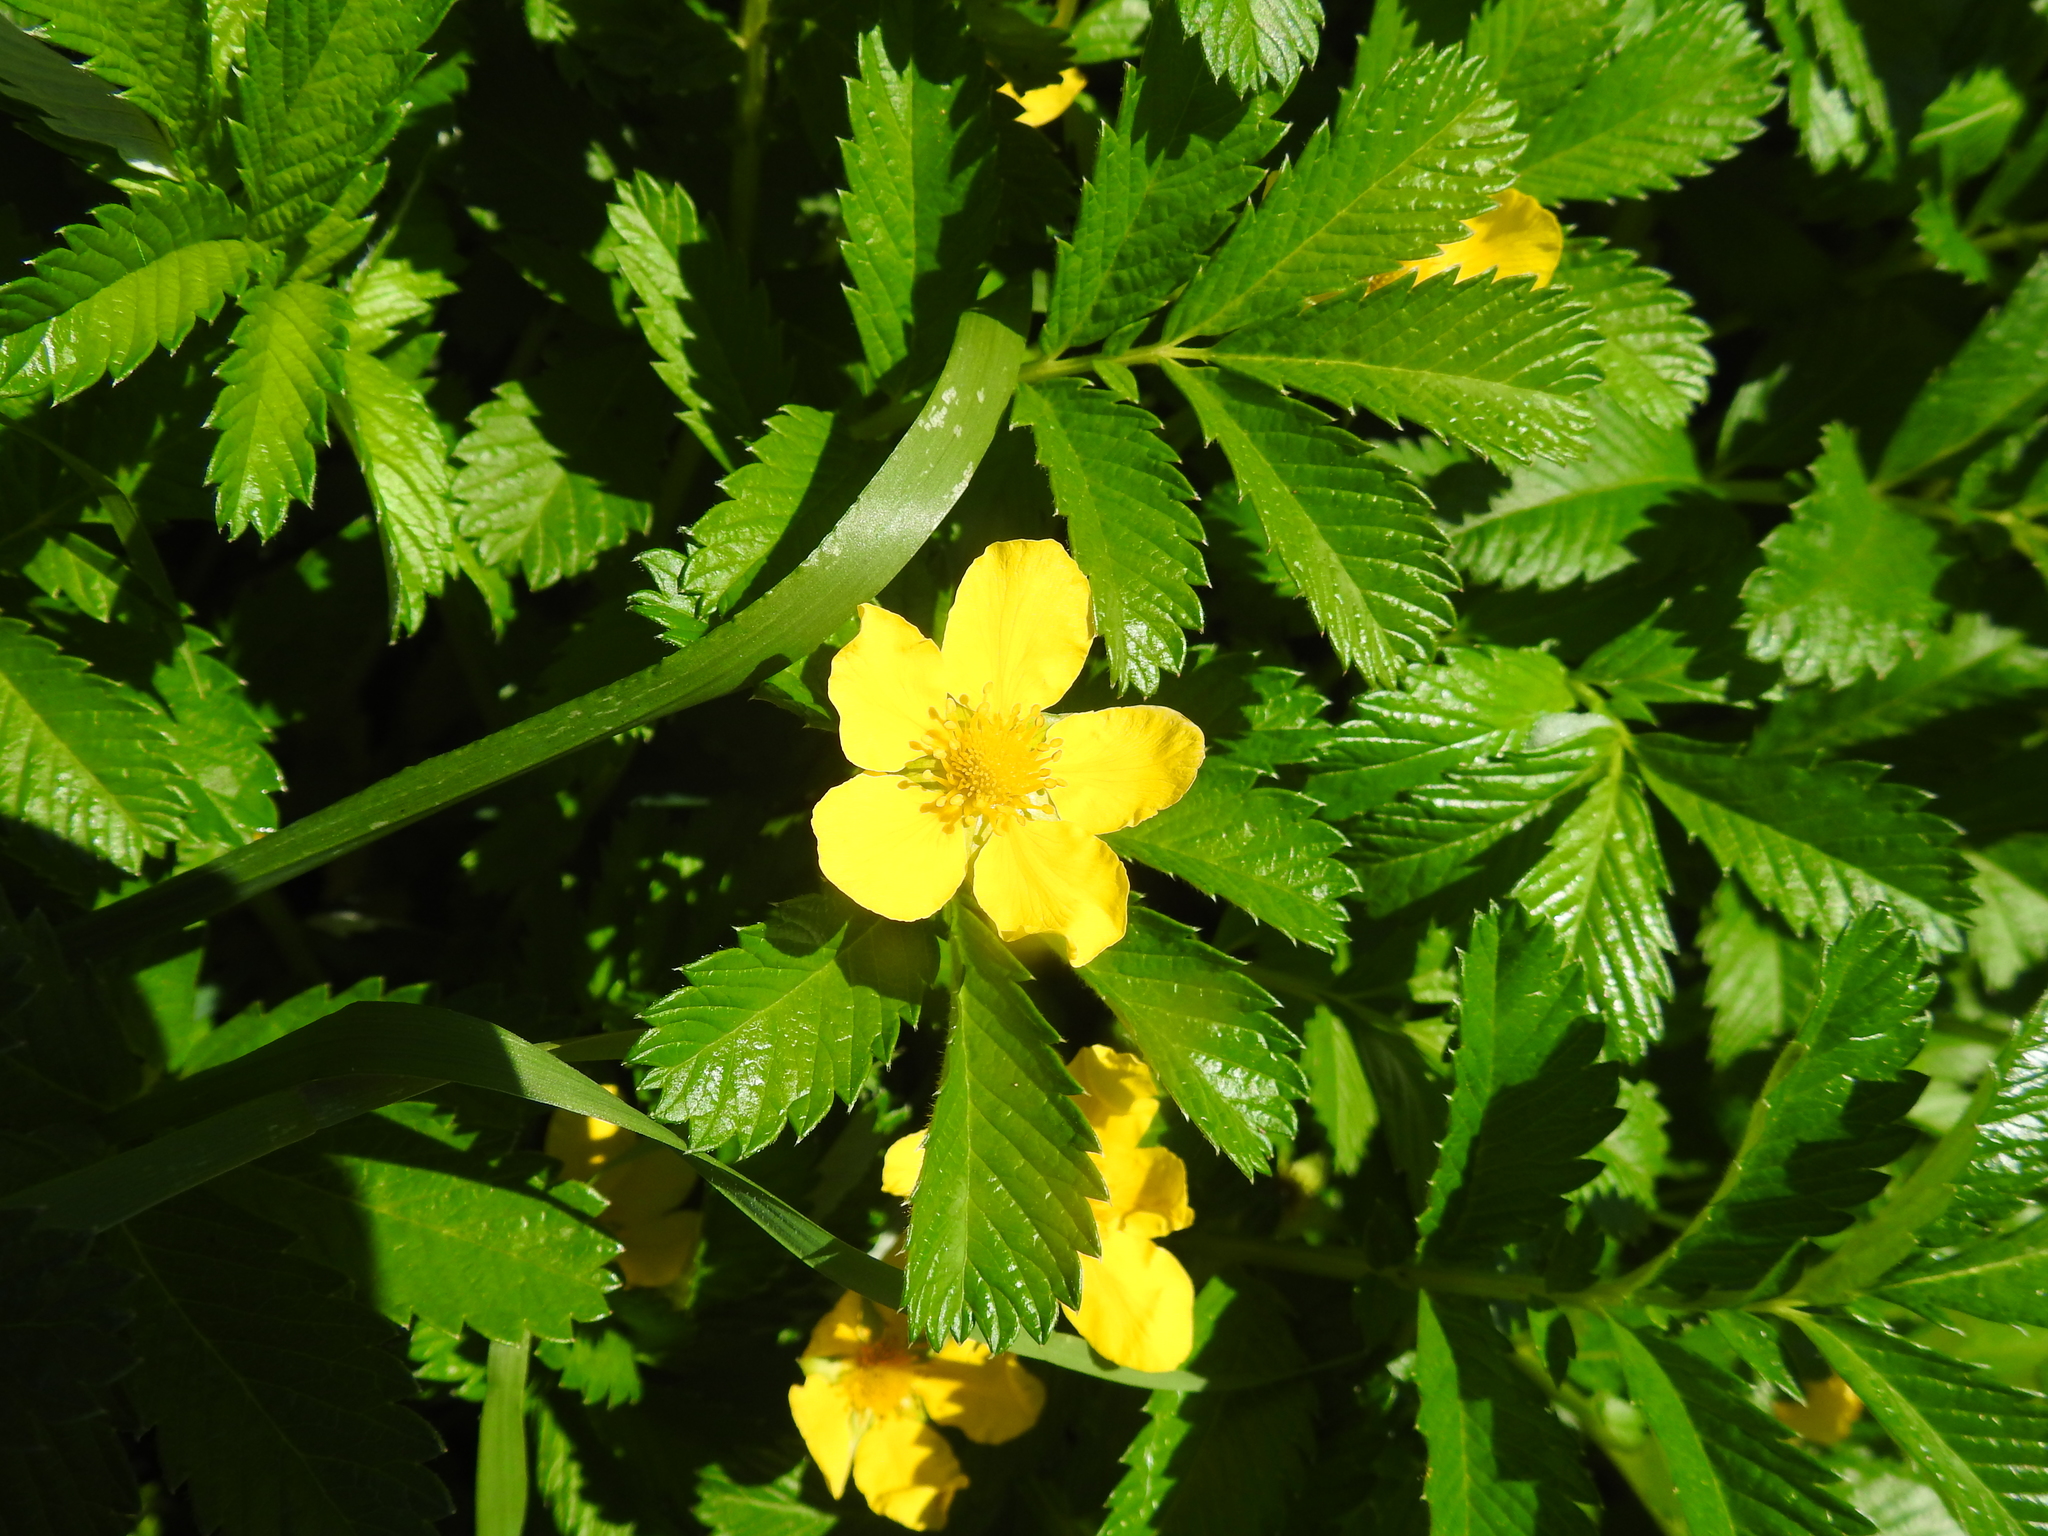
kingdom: Plantae
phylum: Tracheophyta
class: Magnoliopsida
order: Rosales
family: Rosaceae
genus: Argentina
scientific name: Argentina anserina
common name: Common silverweed
